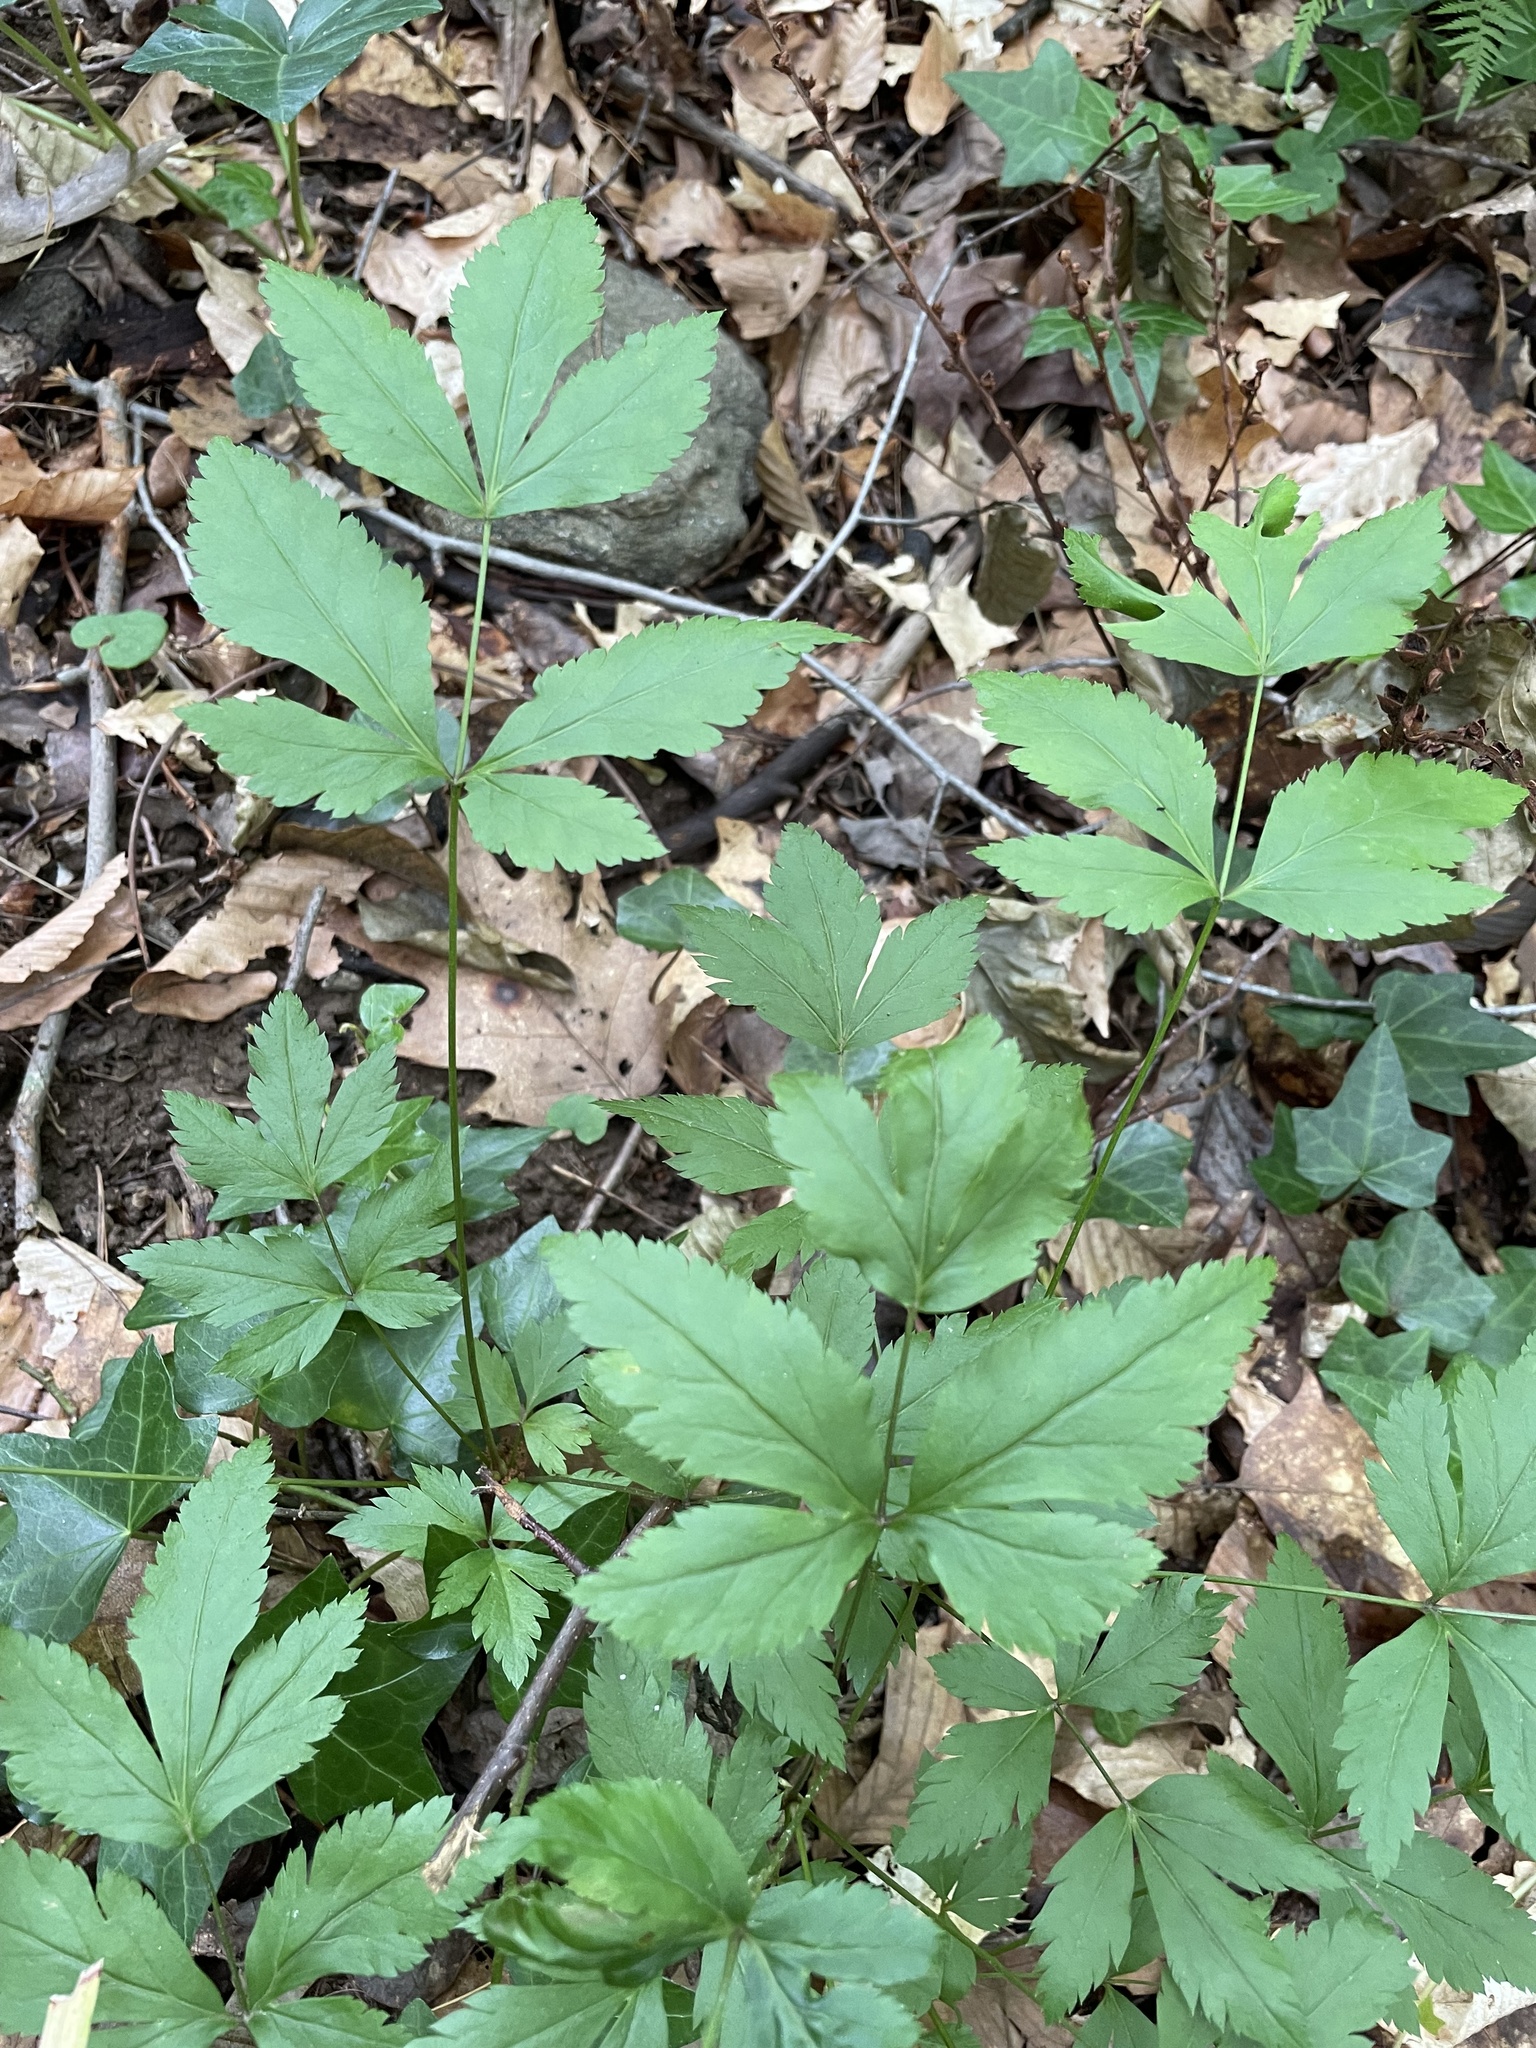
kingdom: Plantae
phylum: Tracheophyta
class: Magnoliopsida
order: Ranunculales
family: Ranunculaceae
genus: Xanthorhiza
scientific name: Xanthorhiza simplicissima
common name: Yellowroot
